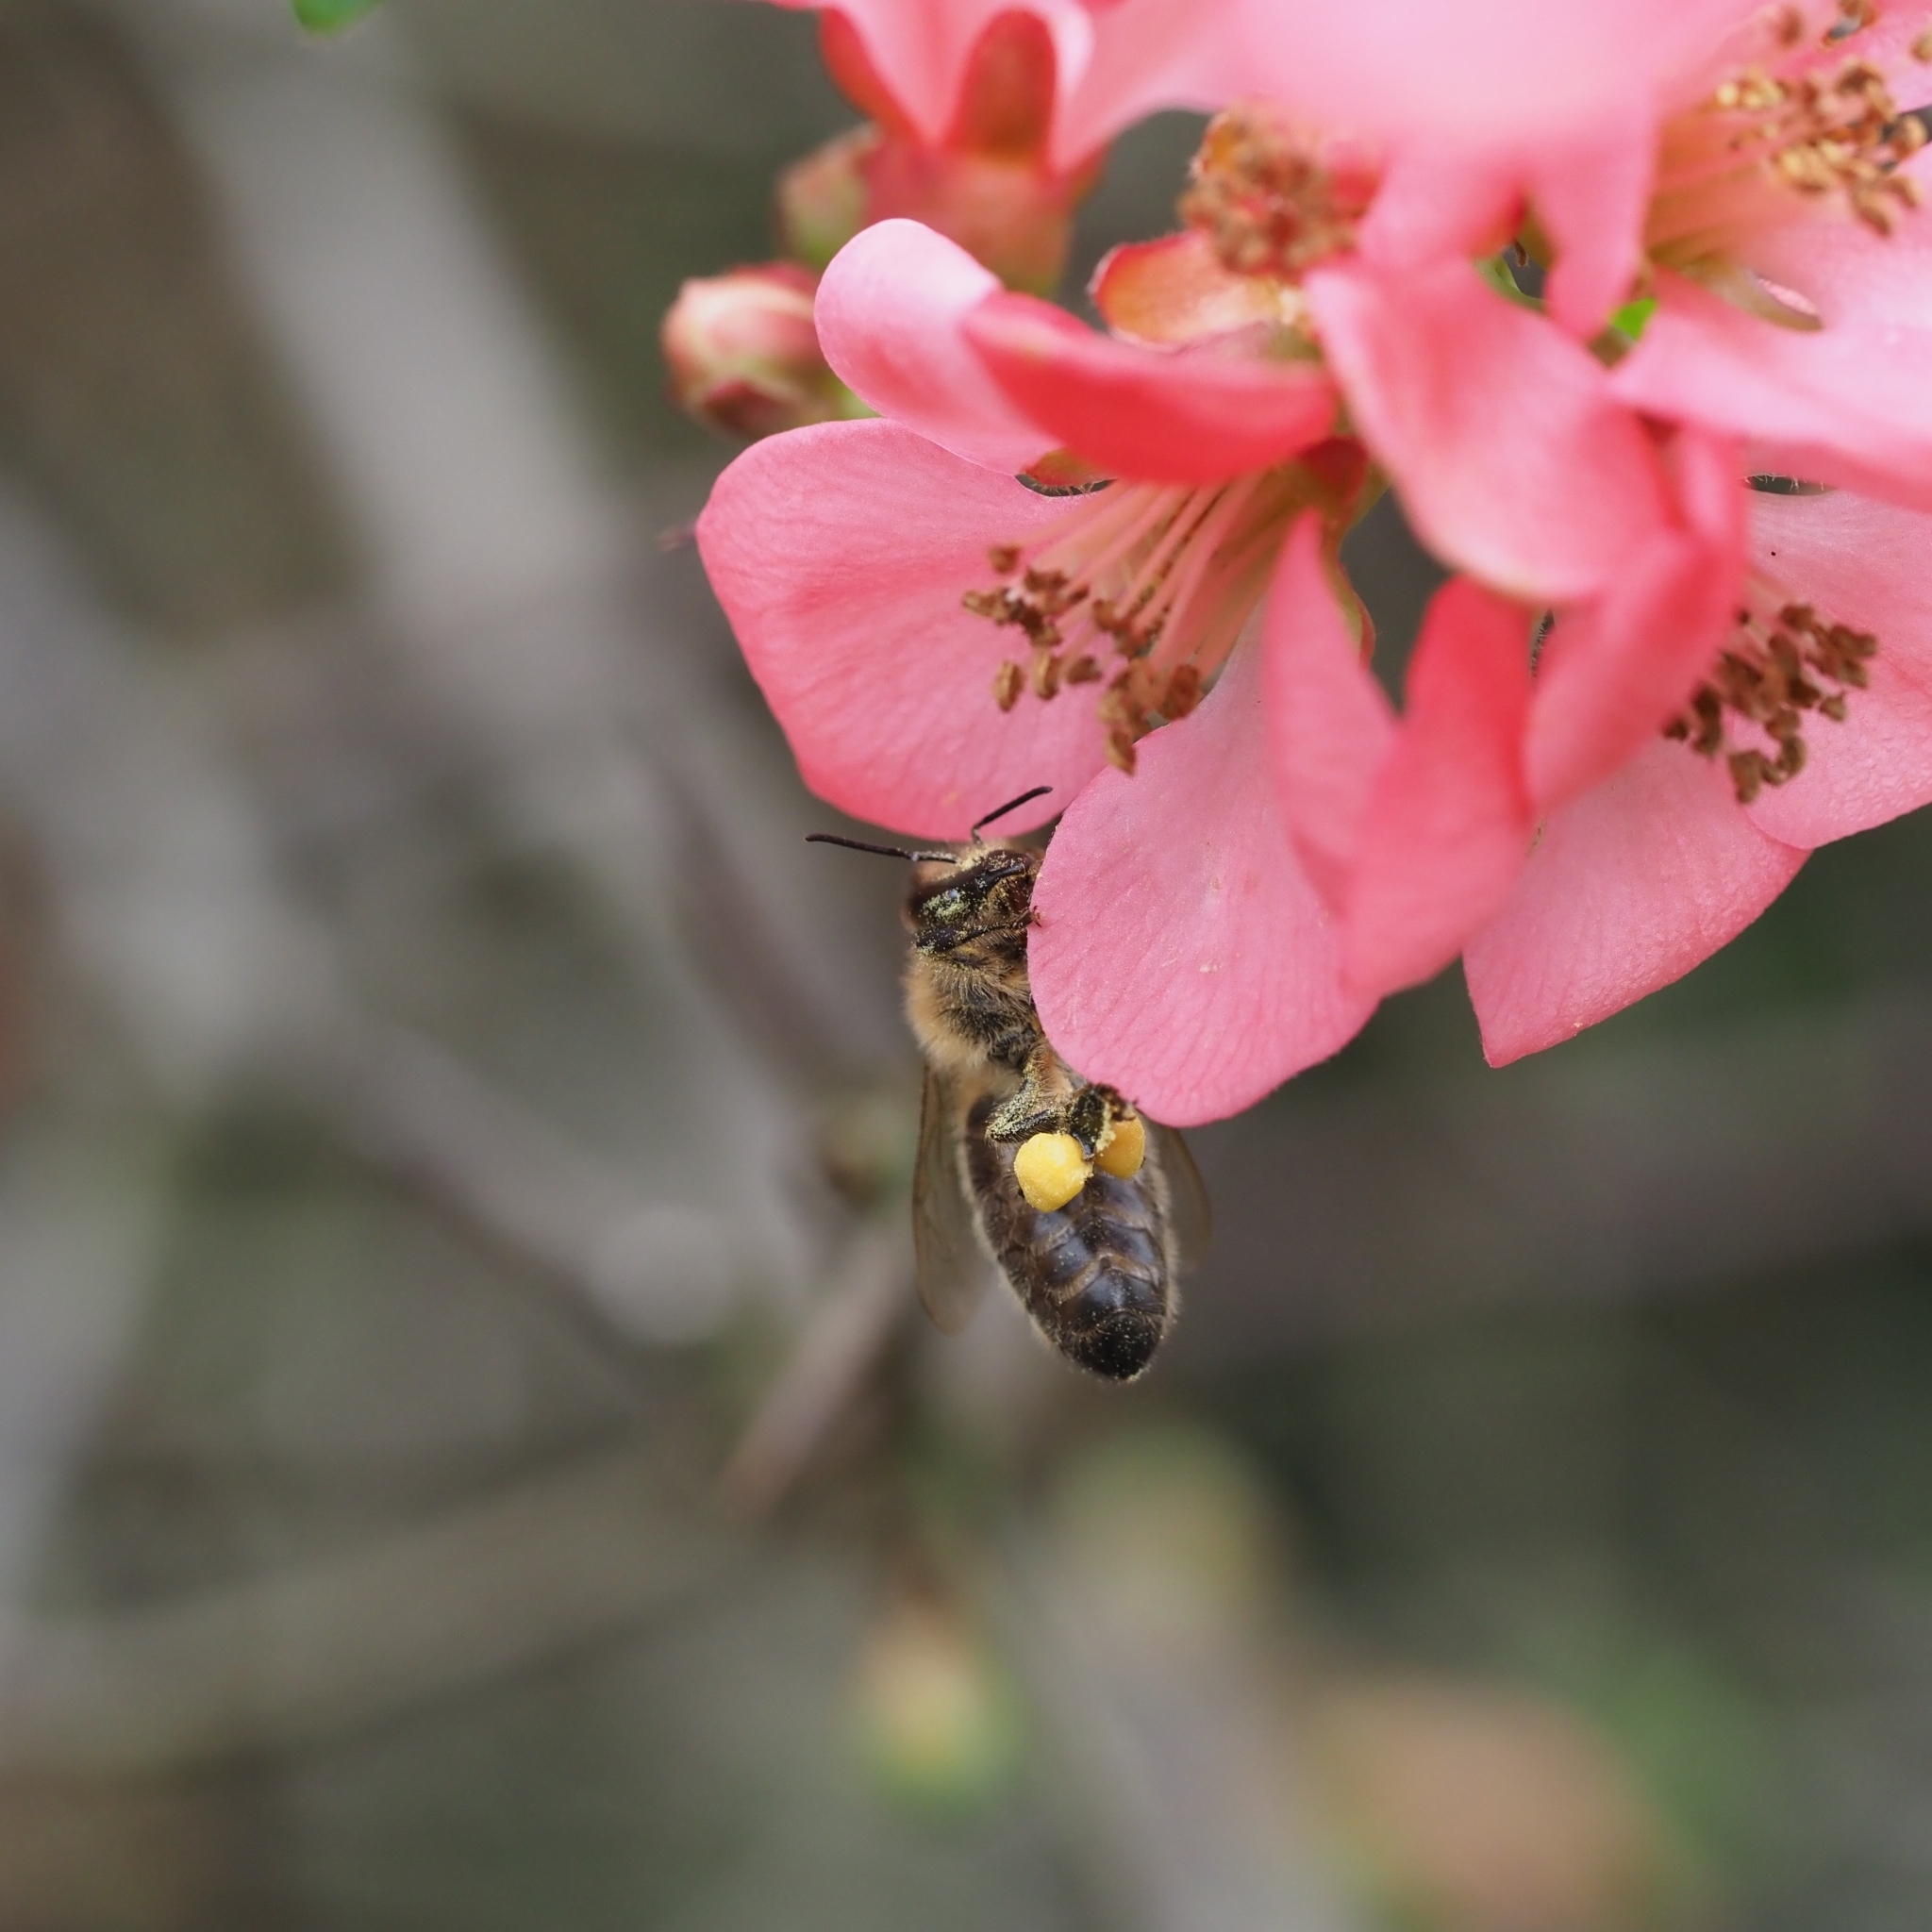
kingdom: Animalia
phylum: Arthropoda
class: Insecta
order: Hymenoptera
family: Apidae
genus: Apis
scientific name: Apis mellifera
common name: Honey bee
